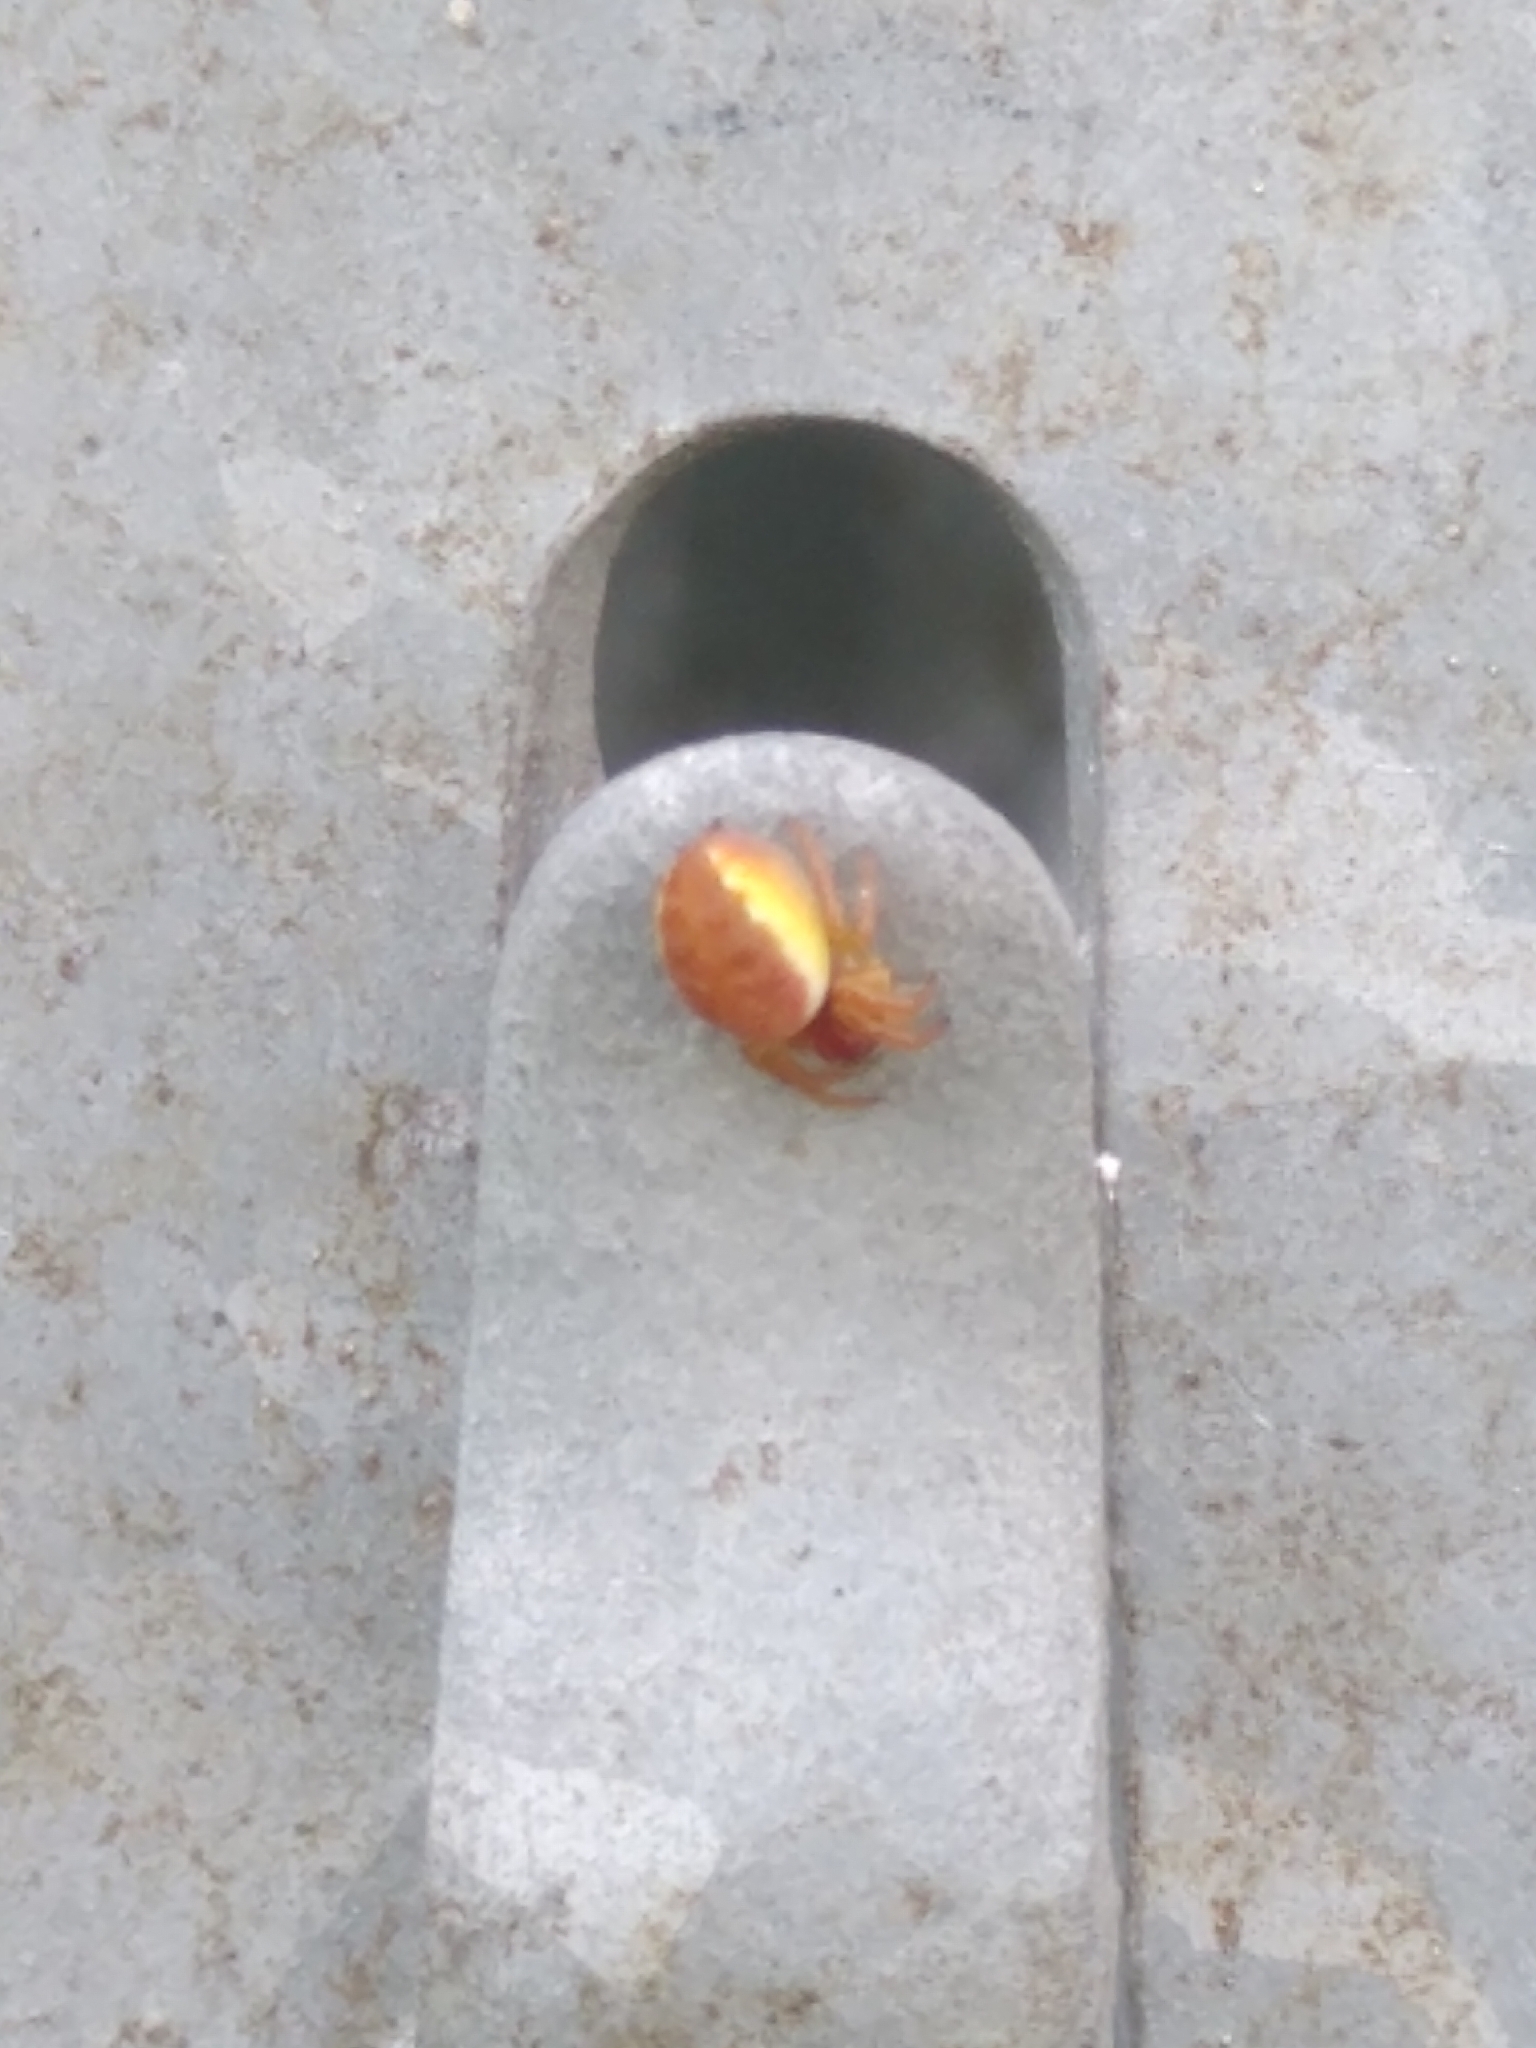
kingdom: Animalia
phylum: Arthropoda
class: Arachnida
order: Araneae
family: Araneidae
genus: Araniella
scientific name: Araniella
